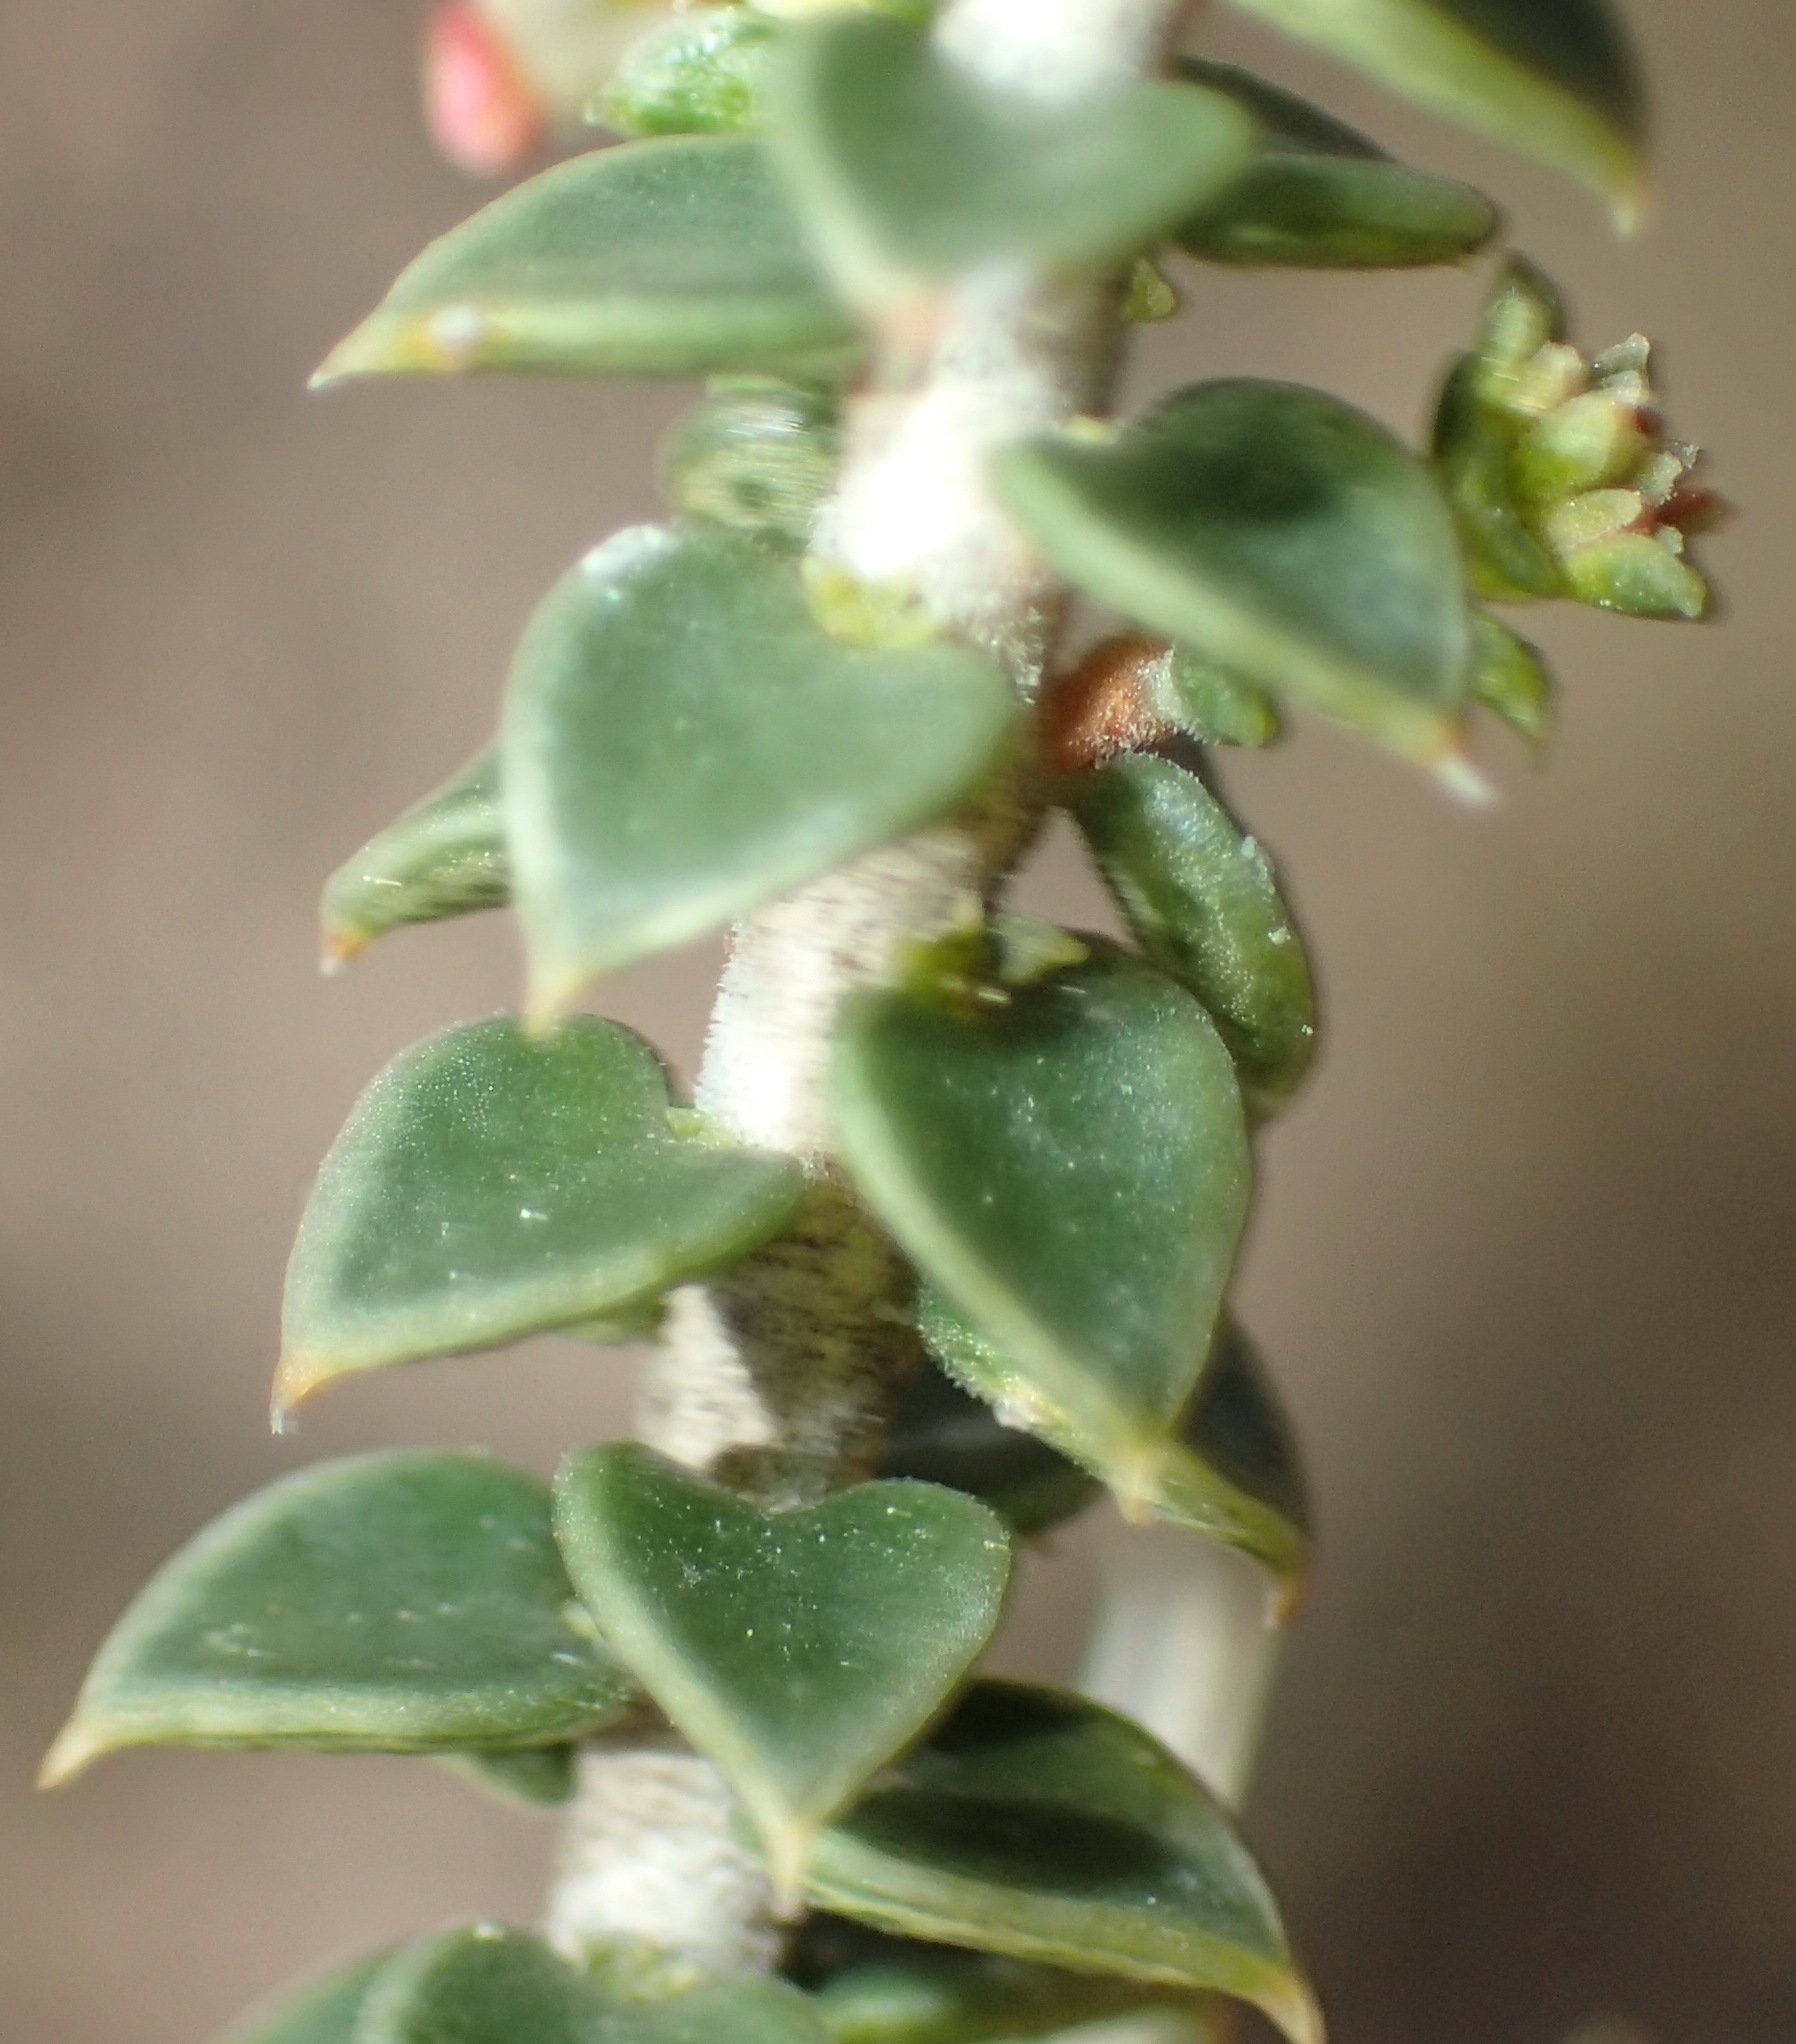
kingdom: Plantae
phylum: Tracheophyta
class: Magnoliopsida
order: Sapindales
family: Rutaceae
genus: Agathosma
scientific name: Agathosma recurvifolia
